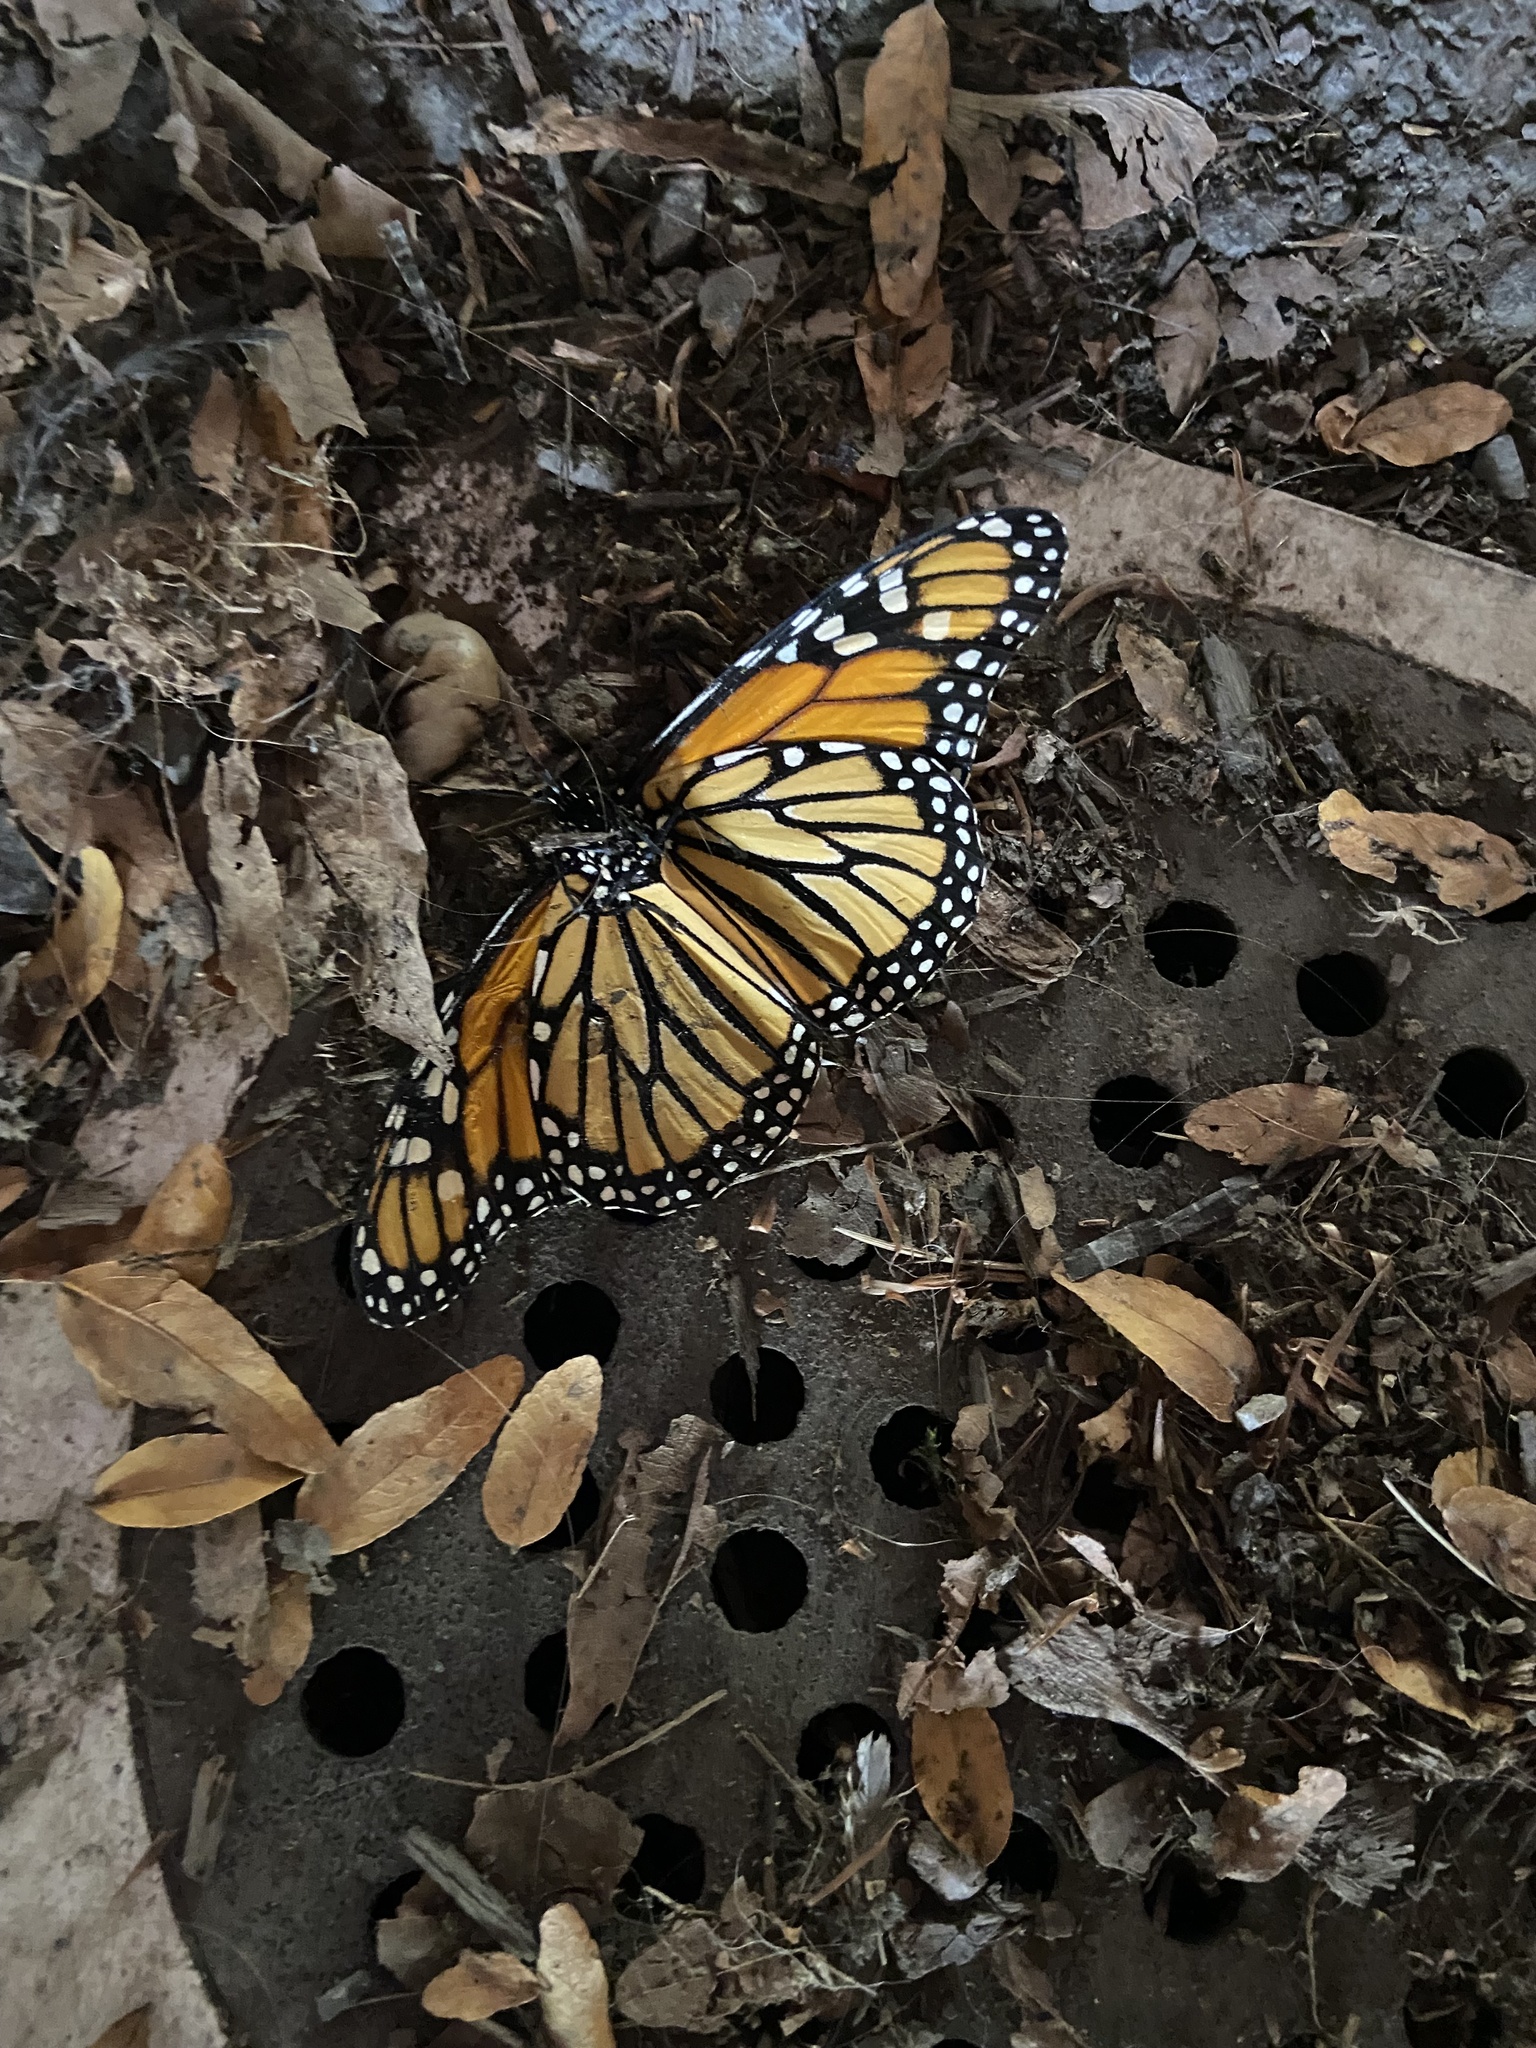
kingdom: Animalia
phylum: Arthropoda
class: Insecta
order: Lepidoptera
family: Nymphalidae
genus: Danaus
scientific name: Danaus plexippus
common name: Monarch
